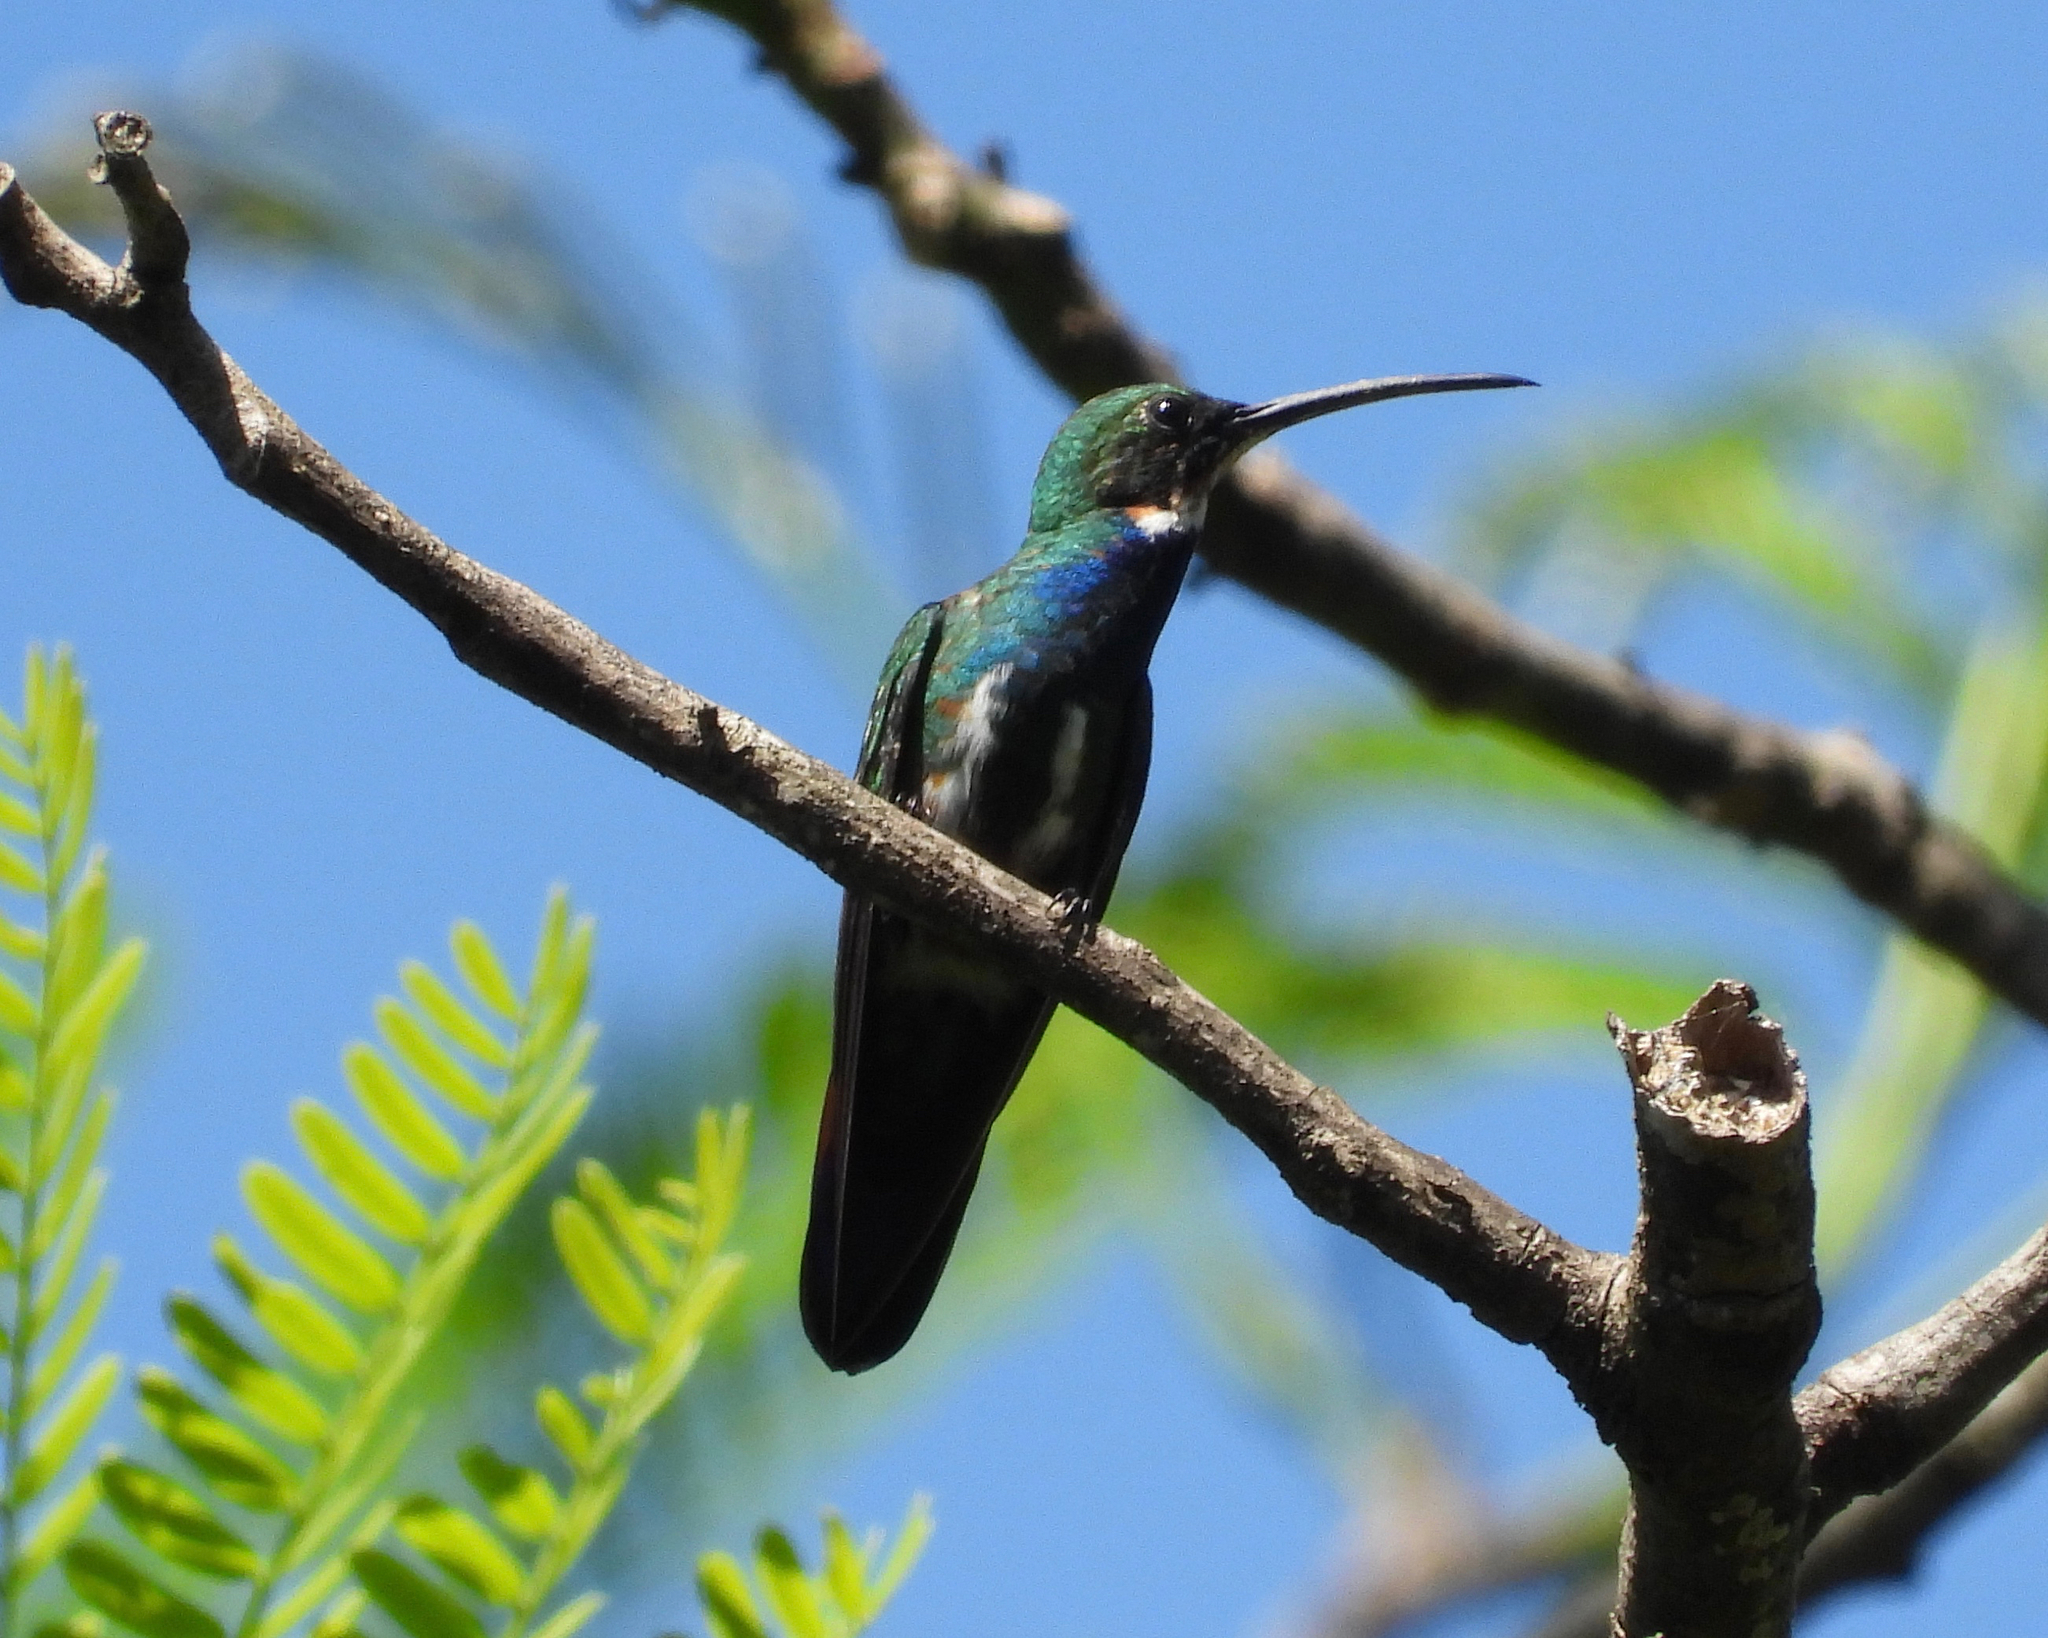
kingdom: Animalia
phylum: Chordata
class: Aves
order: Apodiformes
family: Trochilidae
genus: Anthracothorax
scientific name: Anthracothorax prevostii
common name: Green-breasted mango
